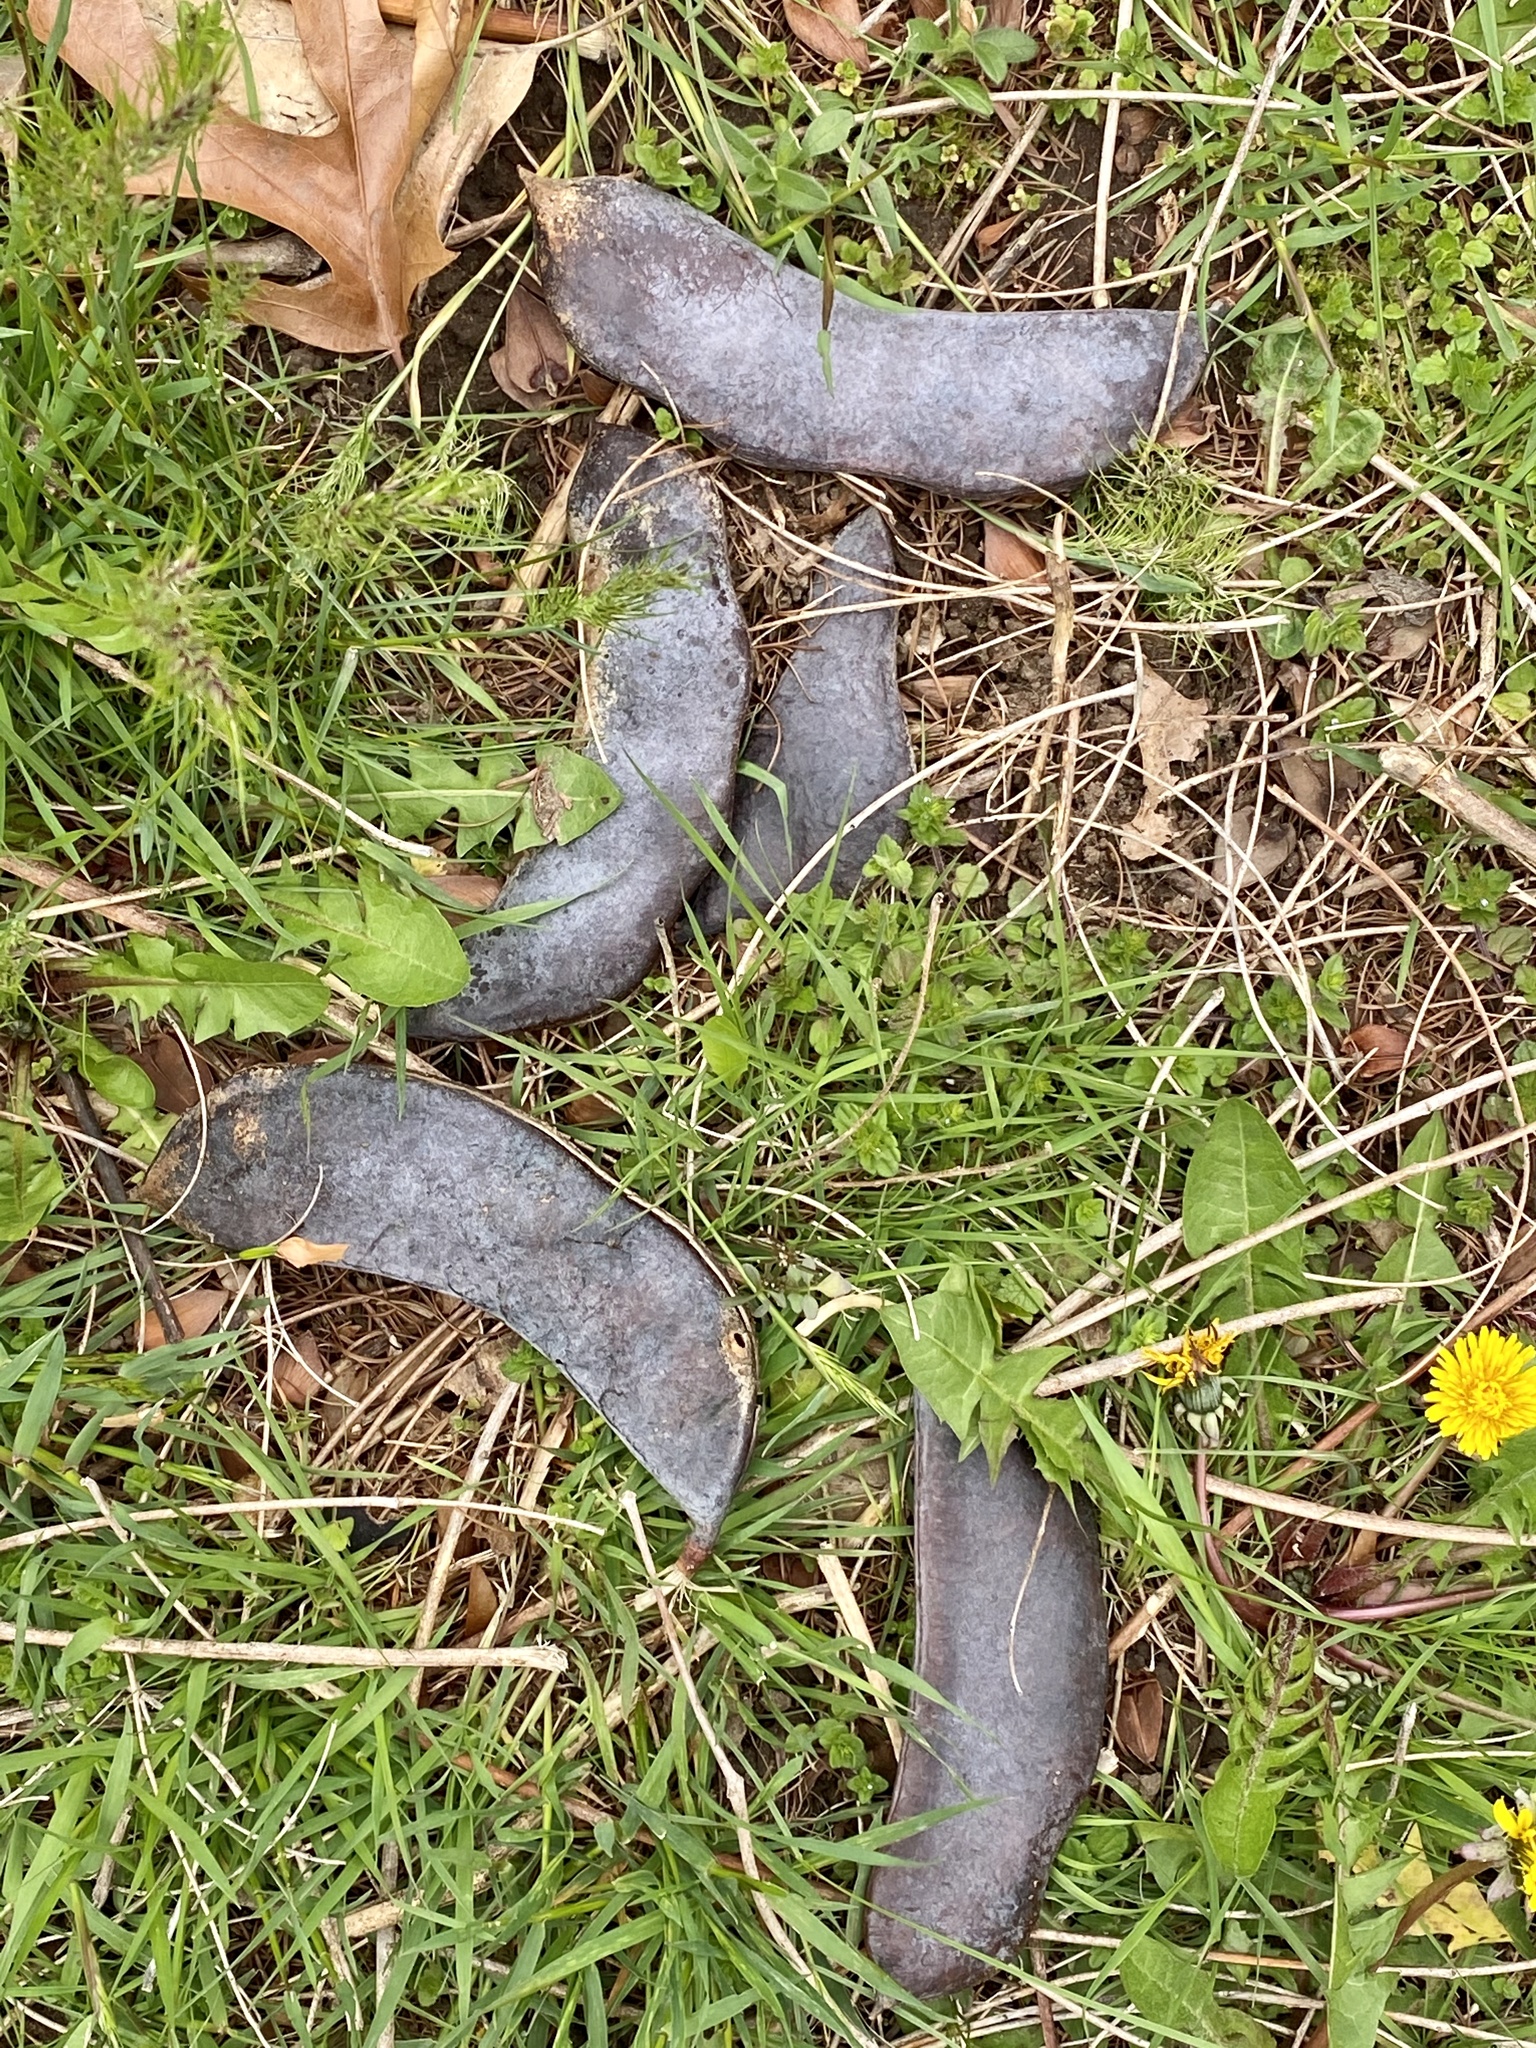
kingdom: Plantae
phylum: Tracheophyta
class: Magnoliopsida
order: Fabales
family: Fabaceae
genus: Gymnocladus
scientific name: Gymnocladus dioicus
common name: Kentucky coffee-tree
